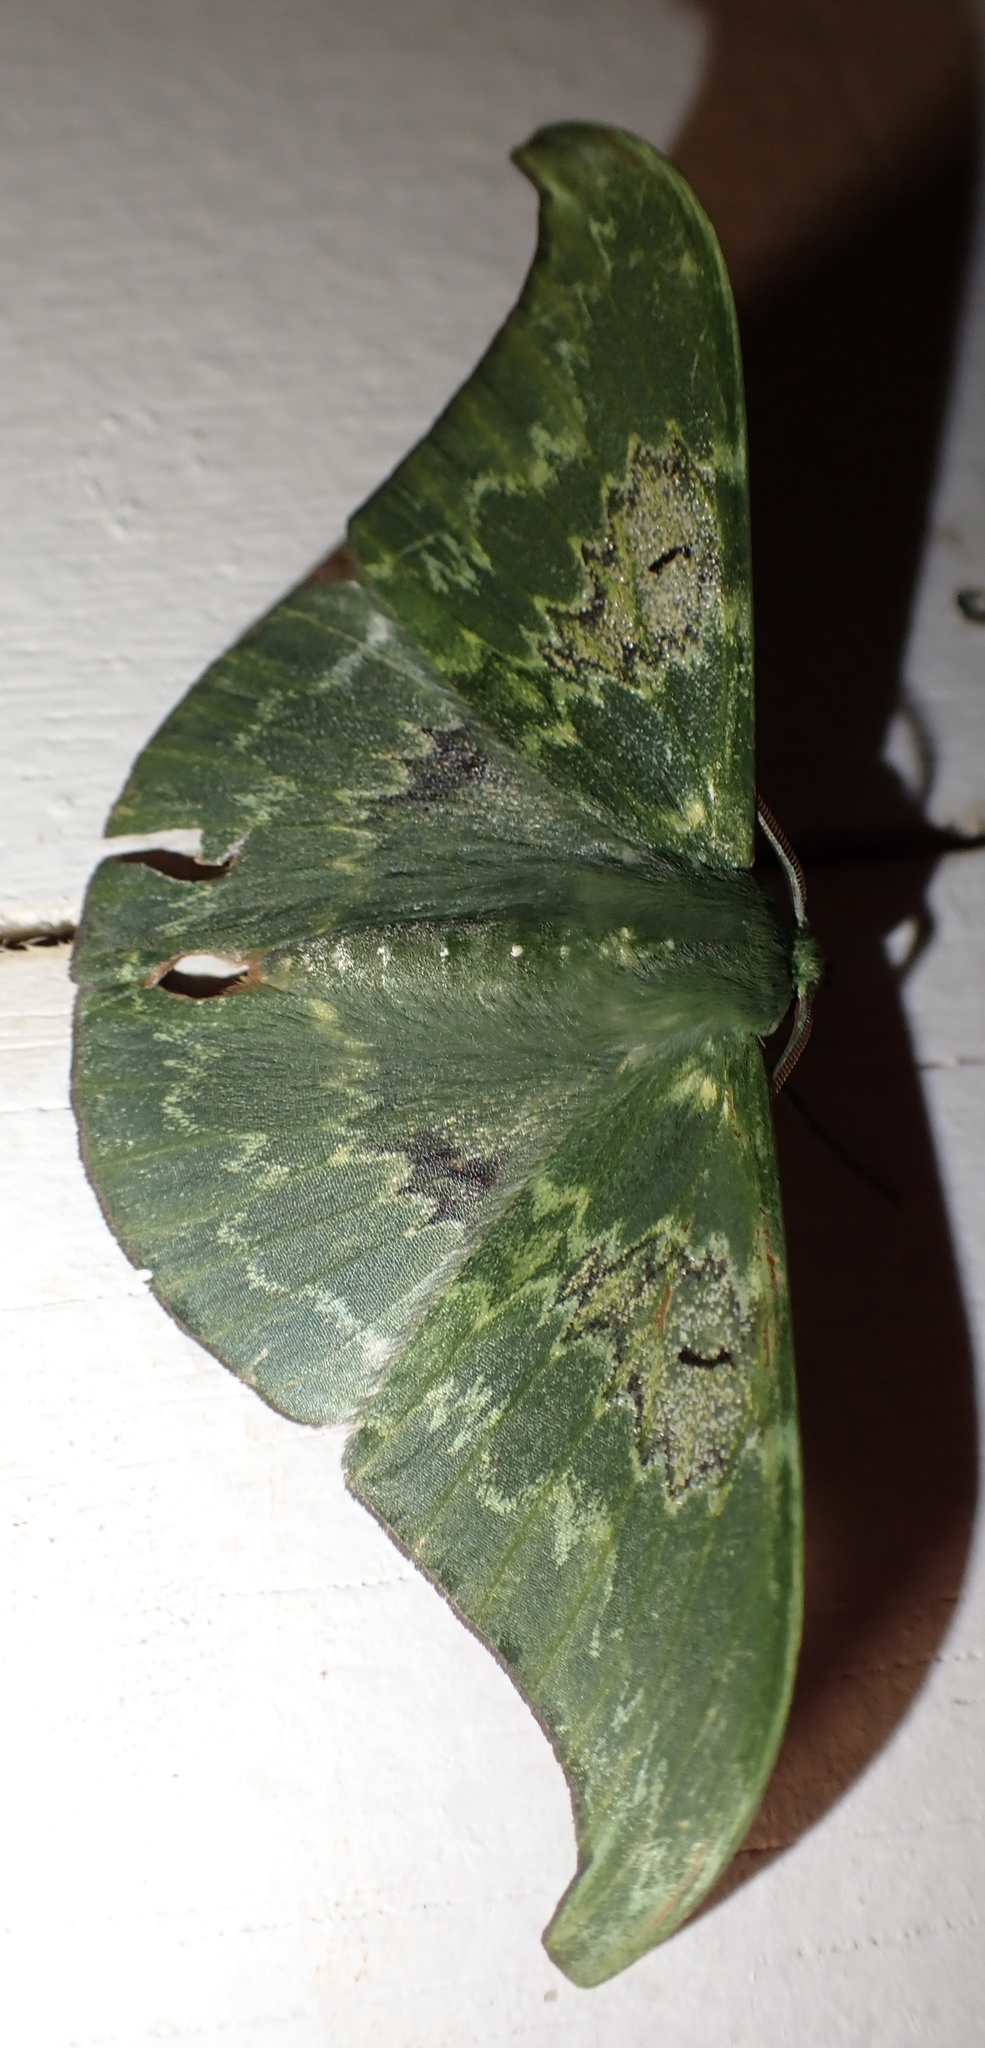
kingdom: Animalia
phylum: Arthropoda
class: Insecta
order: Lepidoptera
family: Geometridae
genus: Tanaorhinus
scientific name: Tanaorhinus unipuncta
